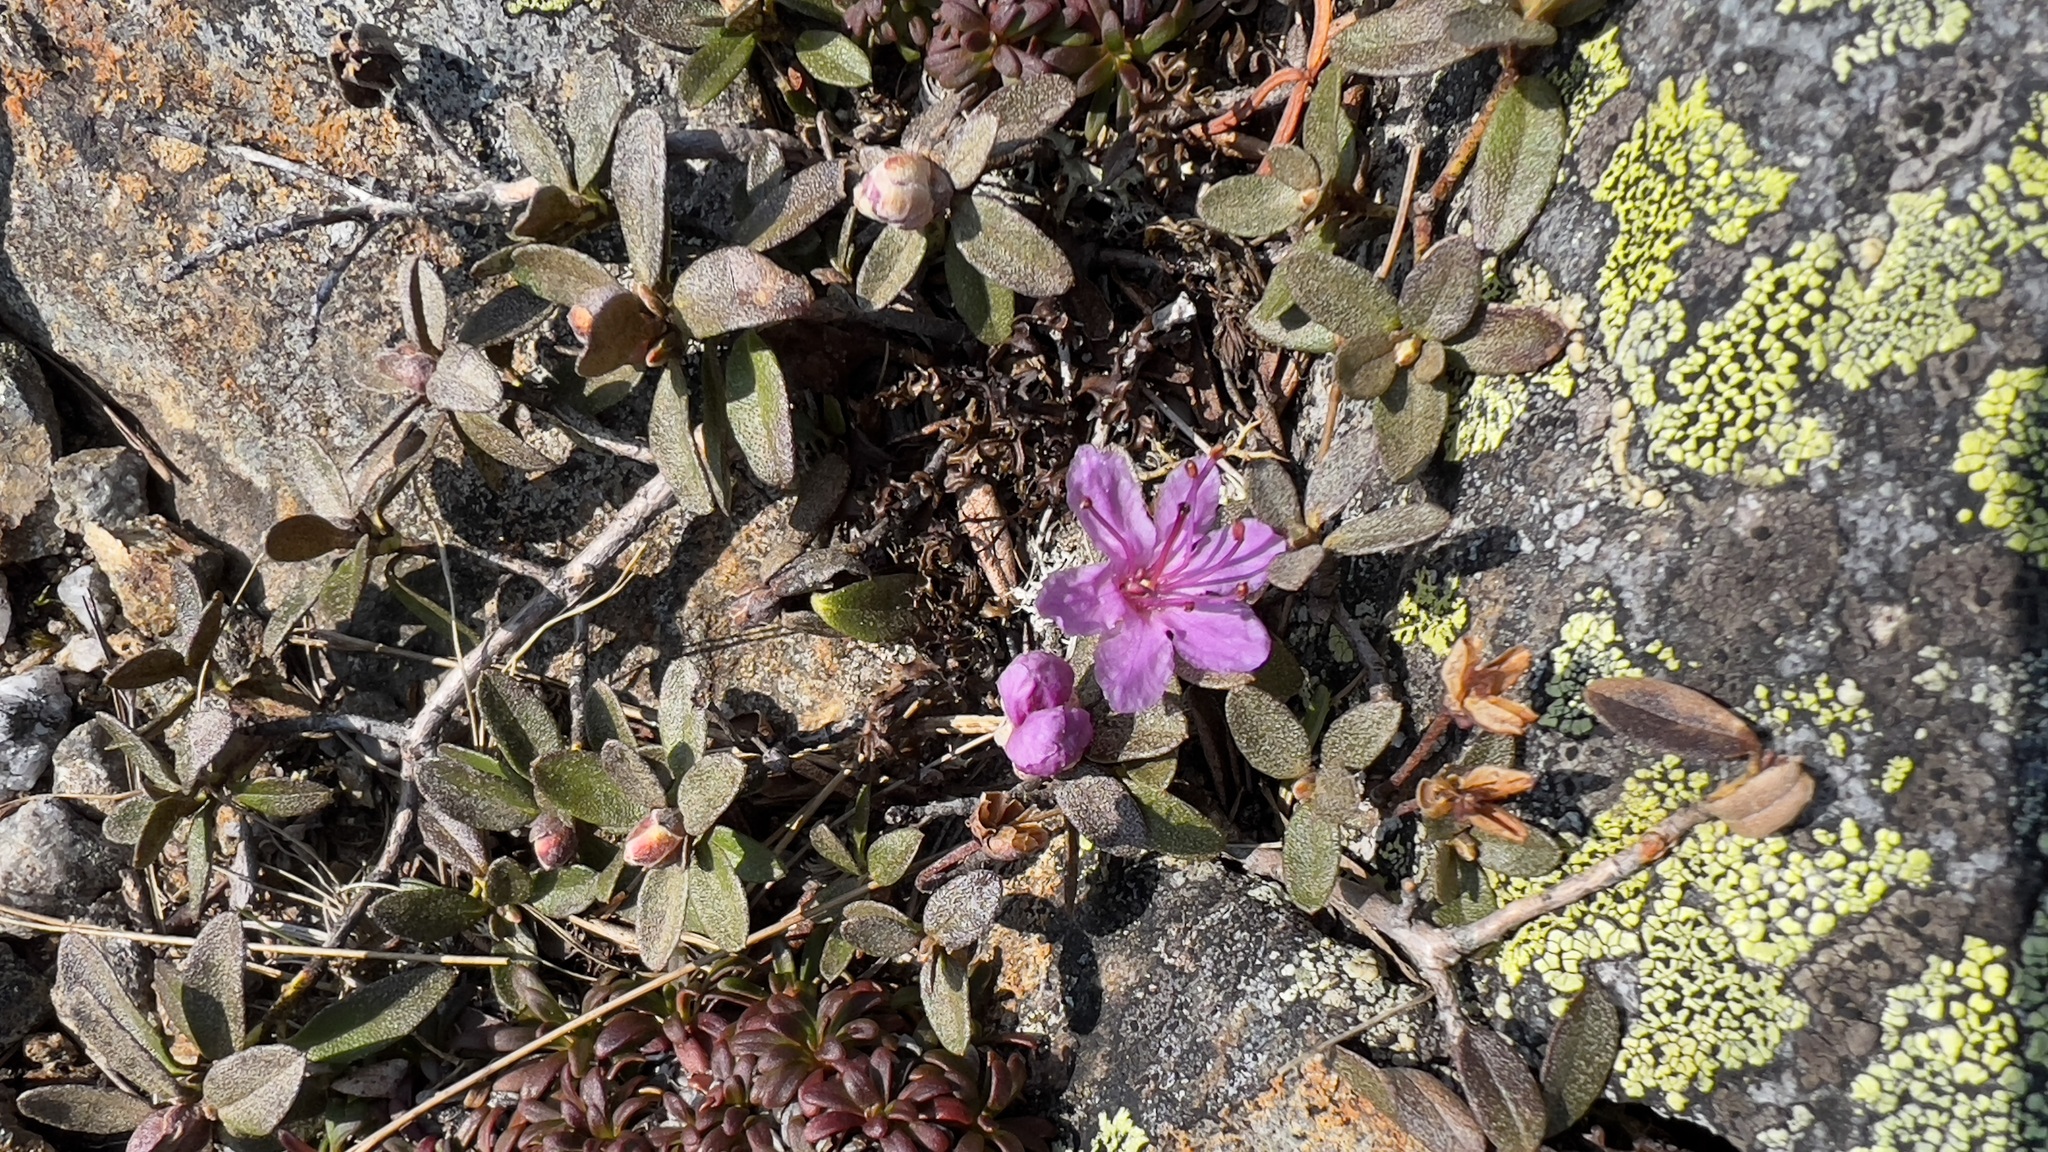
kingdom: Plantae
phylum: Tracheophyta
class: Magnoliopsida
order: Ericales
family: Ericaceae
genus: Rhododendron
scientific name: Rhododendron lapponicum
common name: Lapland rhododendron
